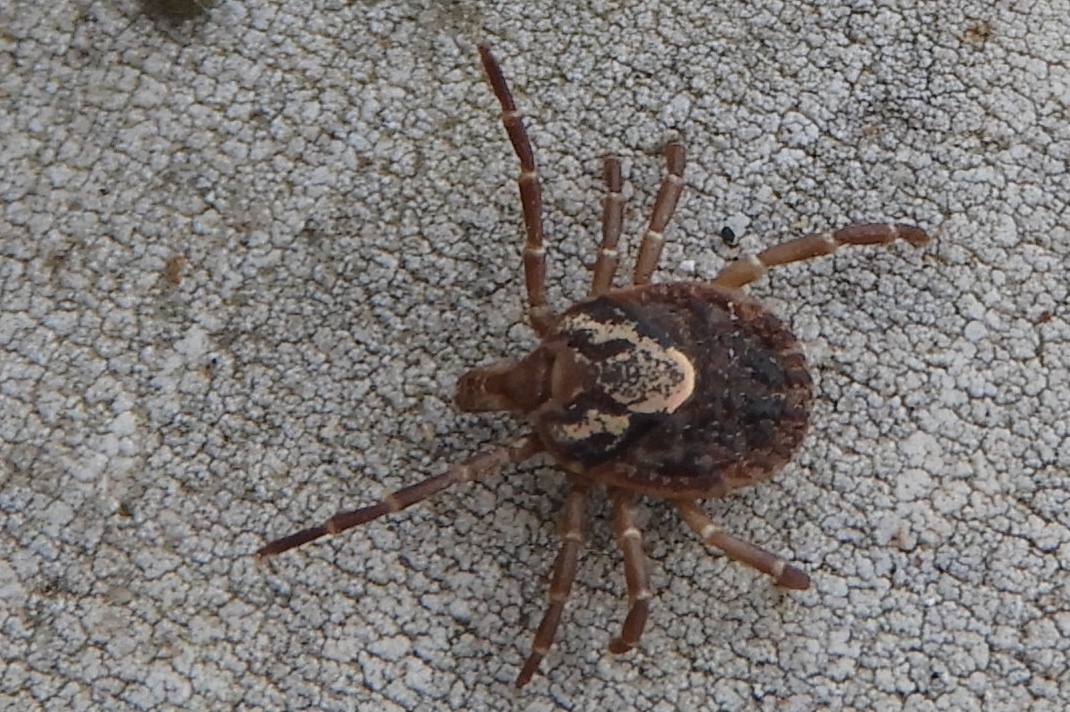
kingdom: Animalia
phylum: Arthropoda
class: Arachnida
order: Ixodida
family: Ixodidae
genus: Amblyomma
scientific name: Amblyomma cajennense
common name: Cayenne tick
